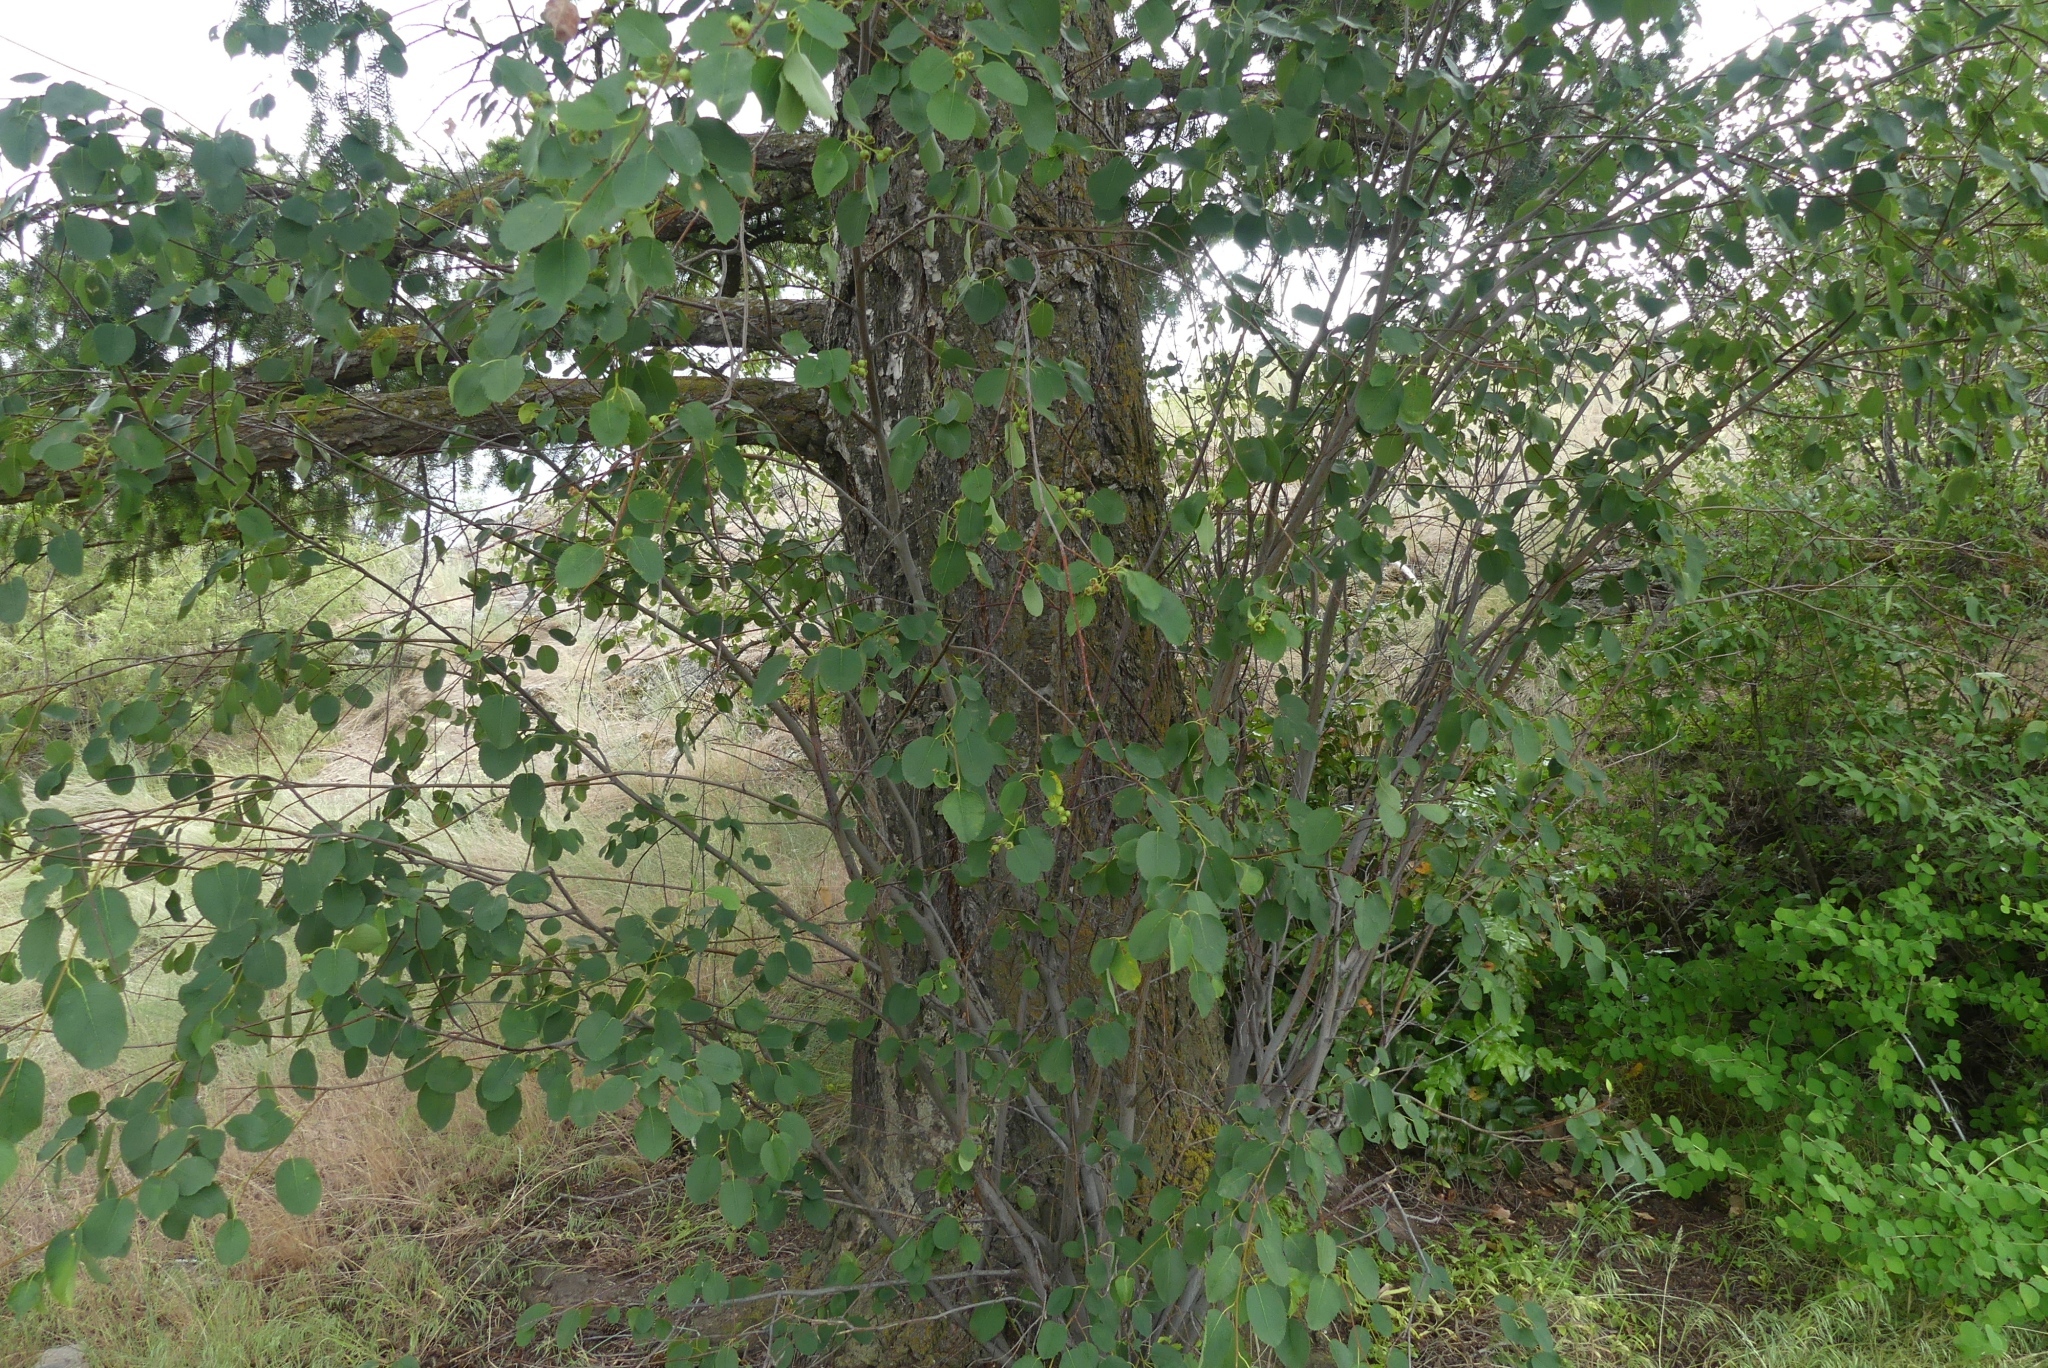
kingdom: Plantae
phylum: Tracheophyta
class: Magnoliopsida
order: Rosales
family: Rosaceae
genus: Amelanchier
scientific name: Amelanchier alnifolia
